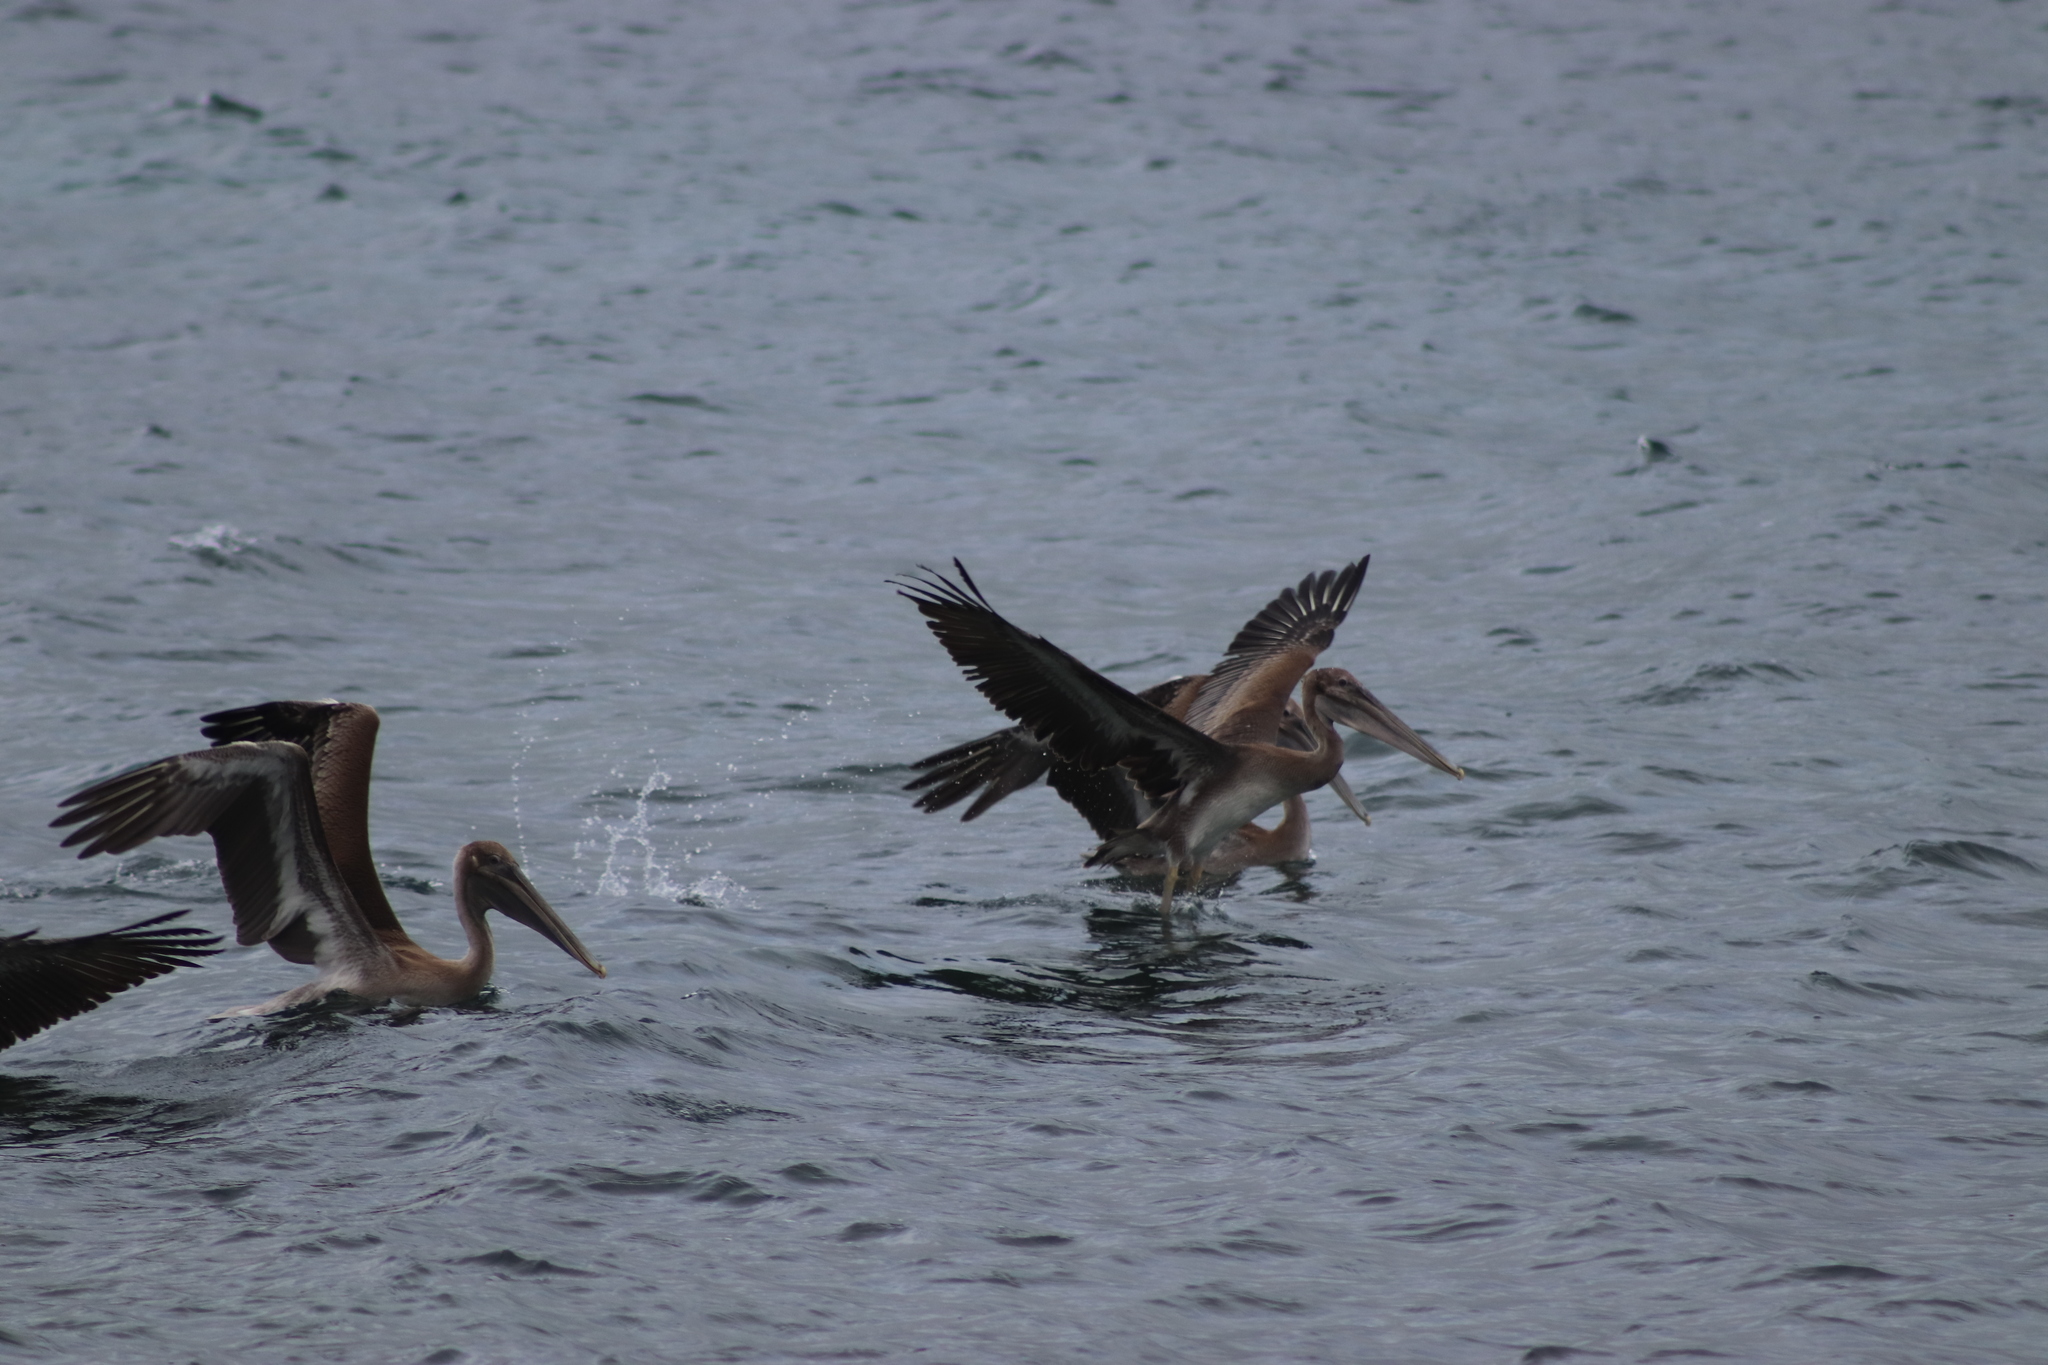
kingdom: Animalia
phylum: Chordata
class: Aves
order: Pelecaniformes
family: Pelecanidae
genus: Pelecanus
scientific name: Pelecanus occidentalis
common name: Brown pelican
